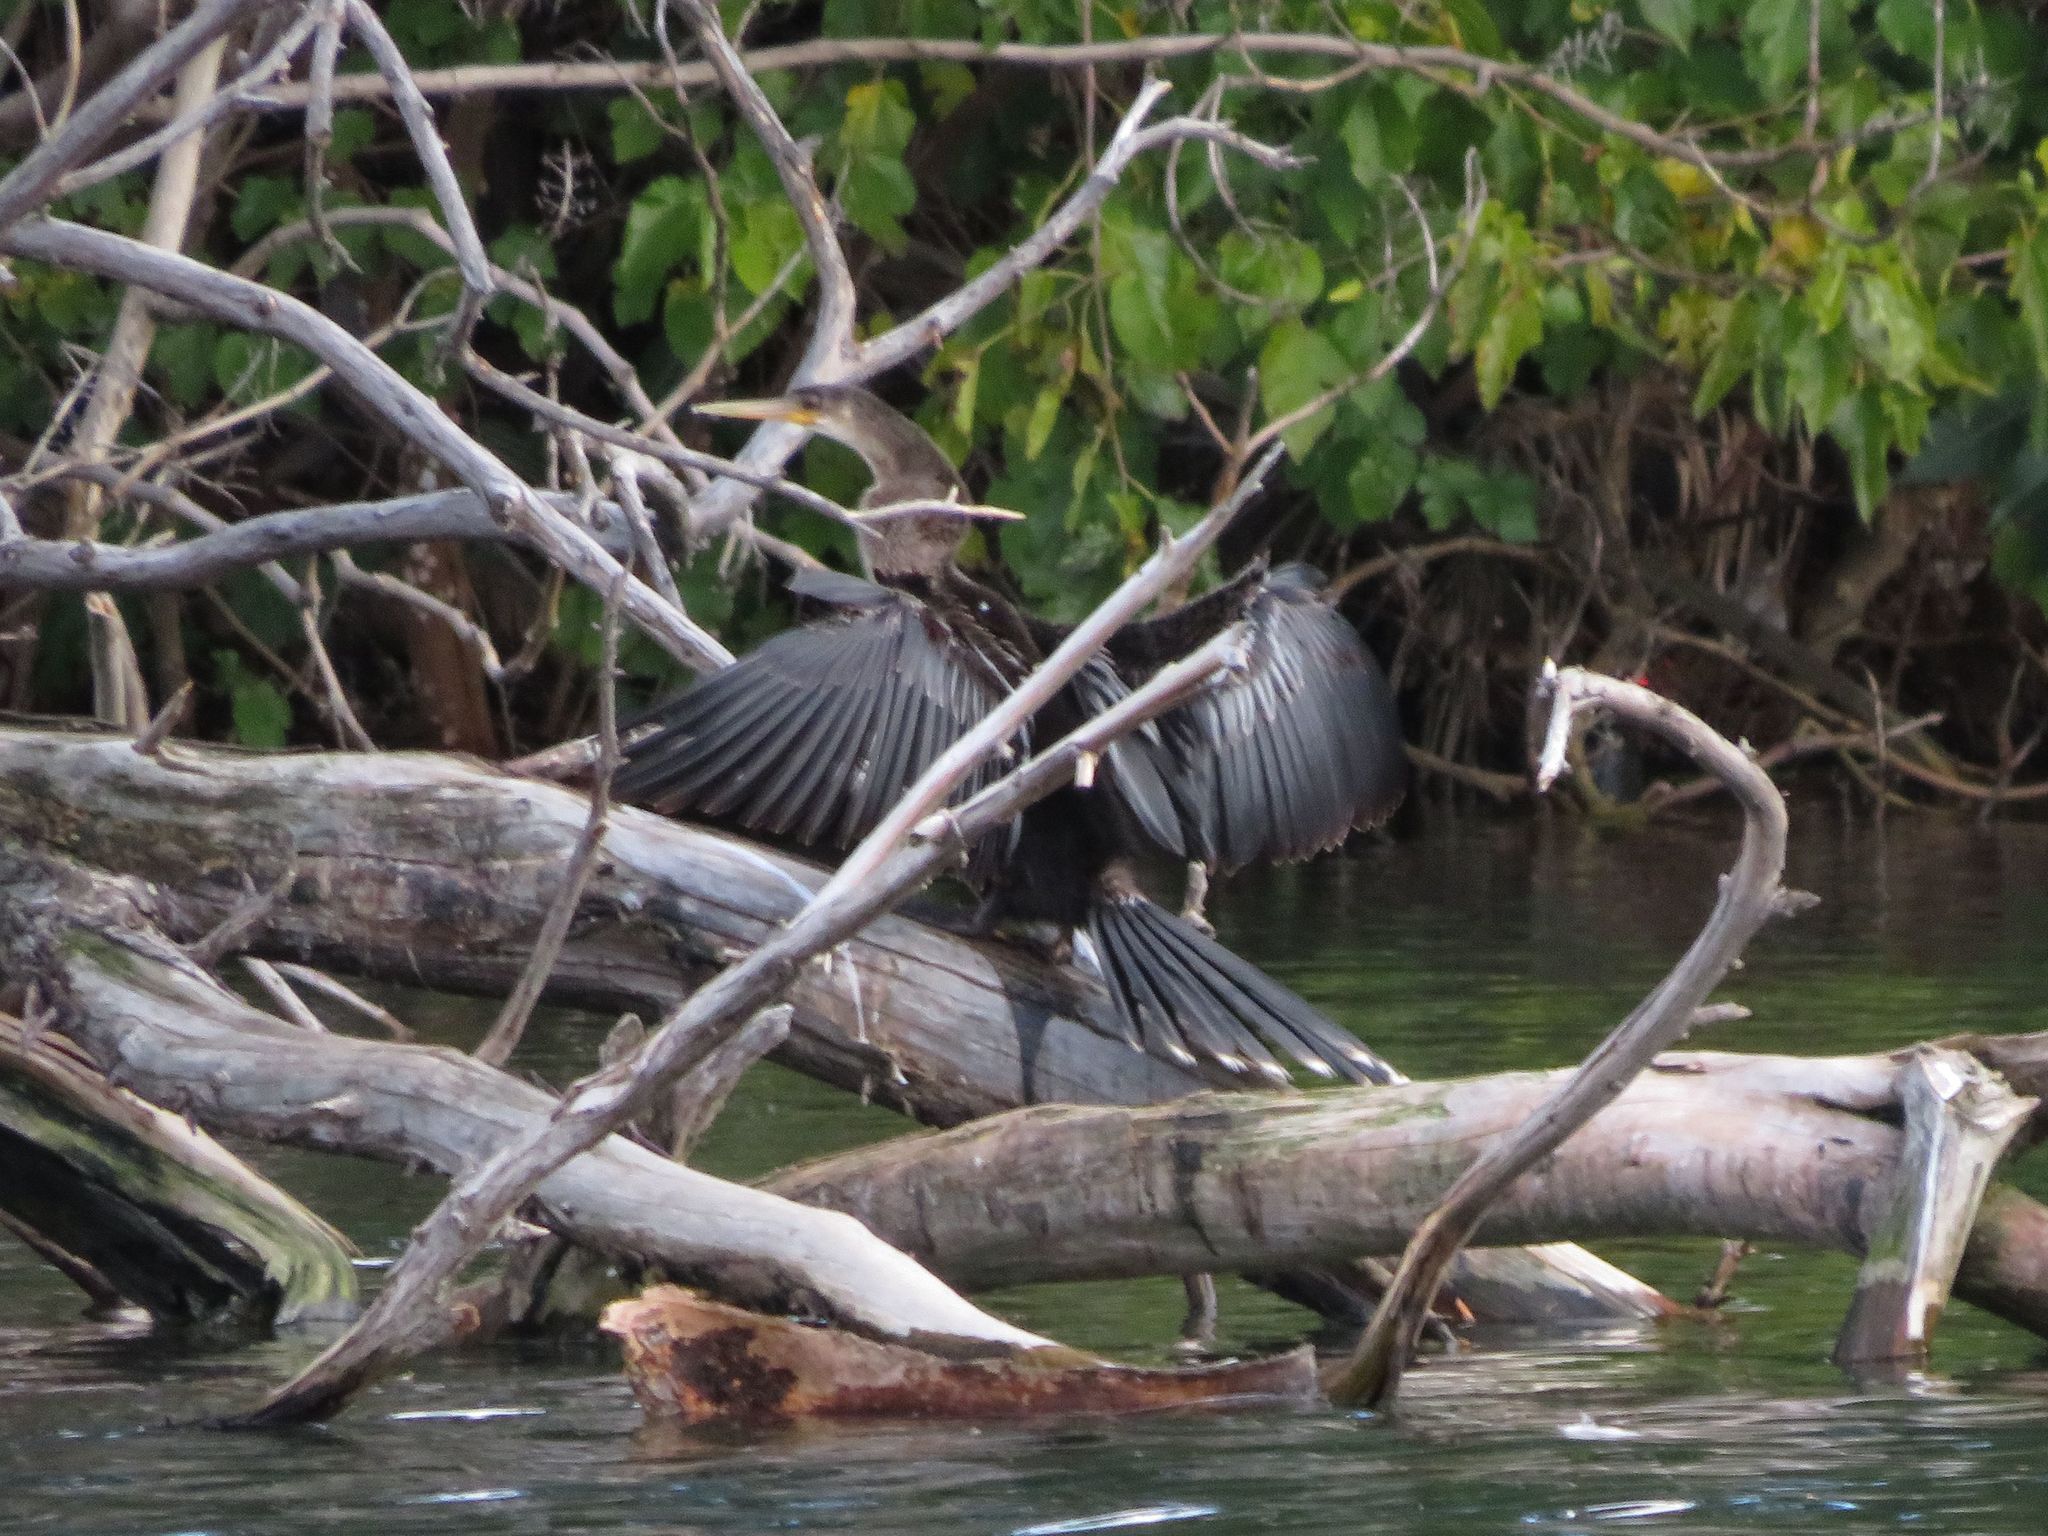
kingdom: Animalia
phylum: Chordata
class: Aves
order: Suliformes
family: Anhingidae
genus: Anhinga
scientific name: Anhinga anhinga
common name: Anhinga
